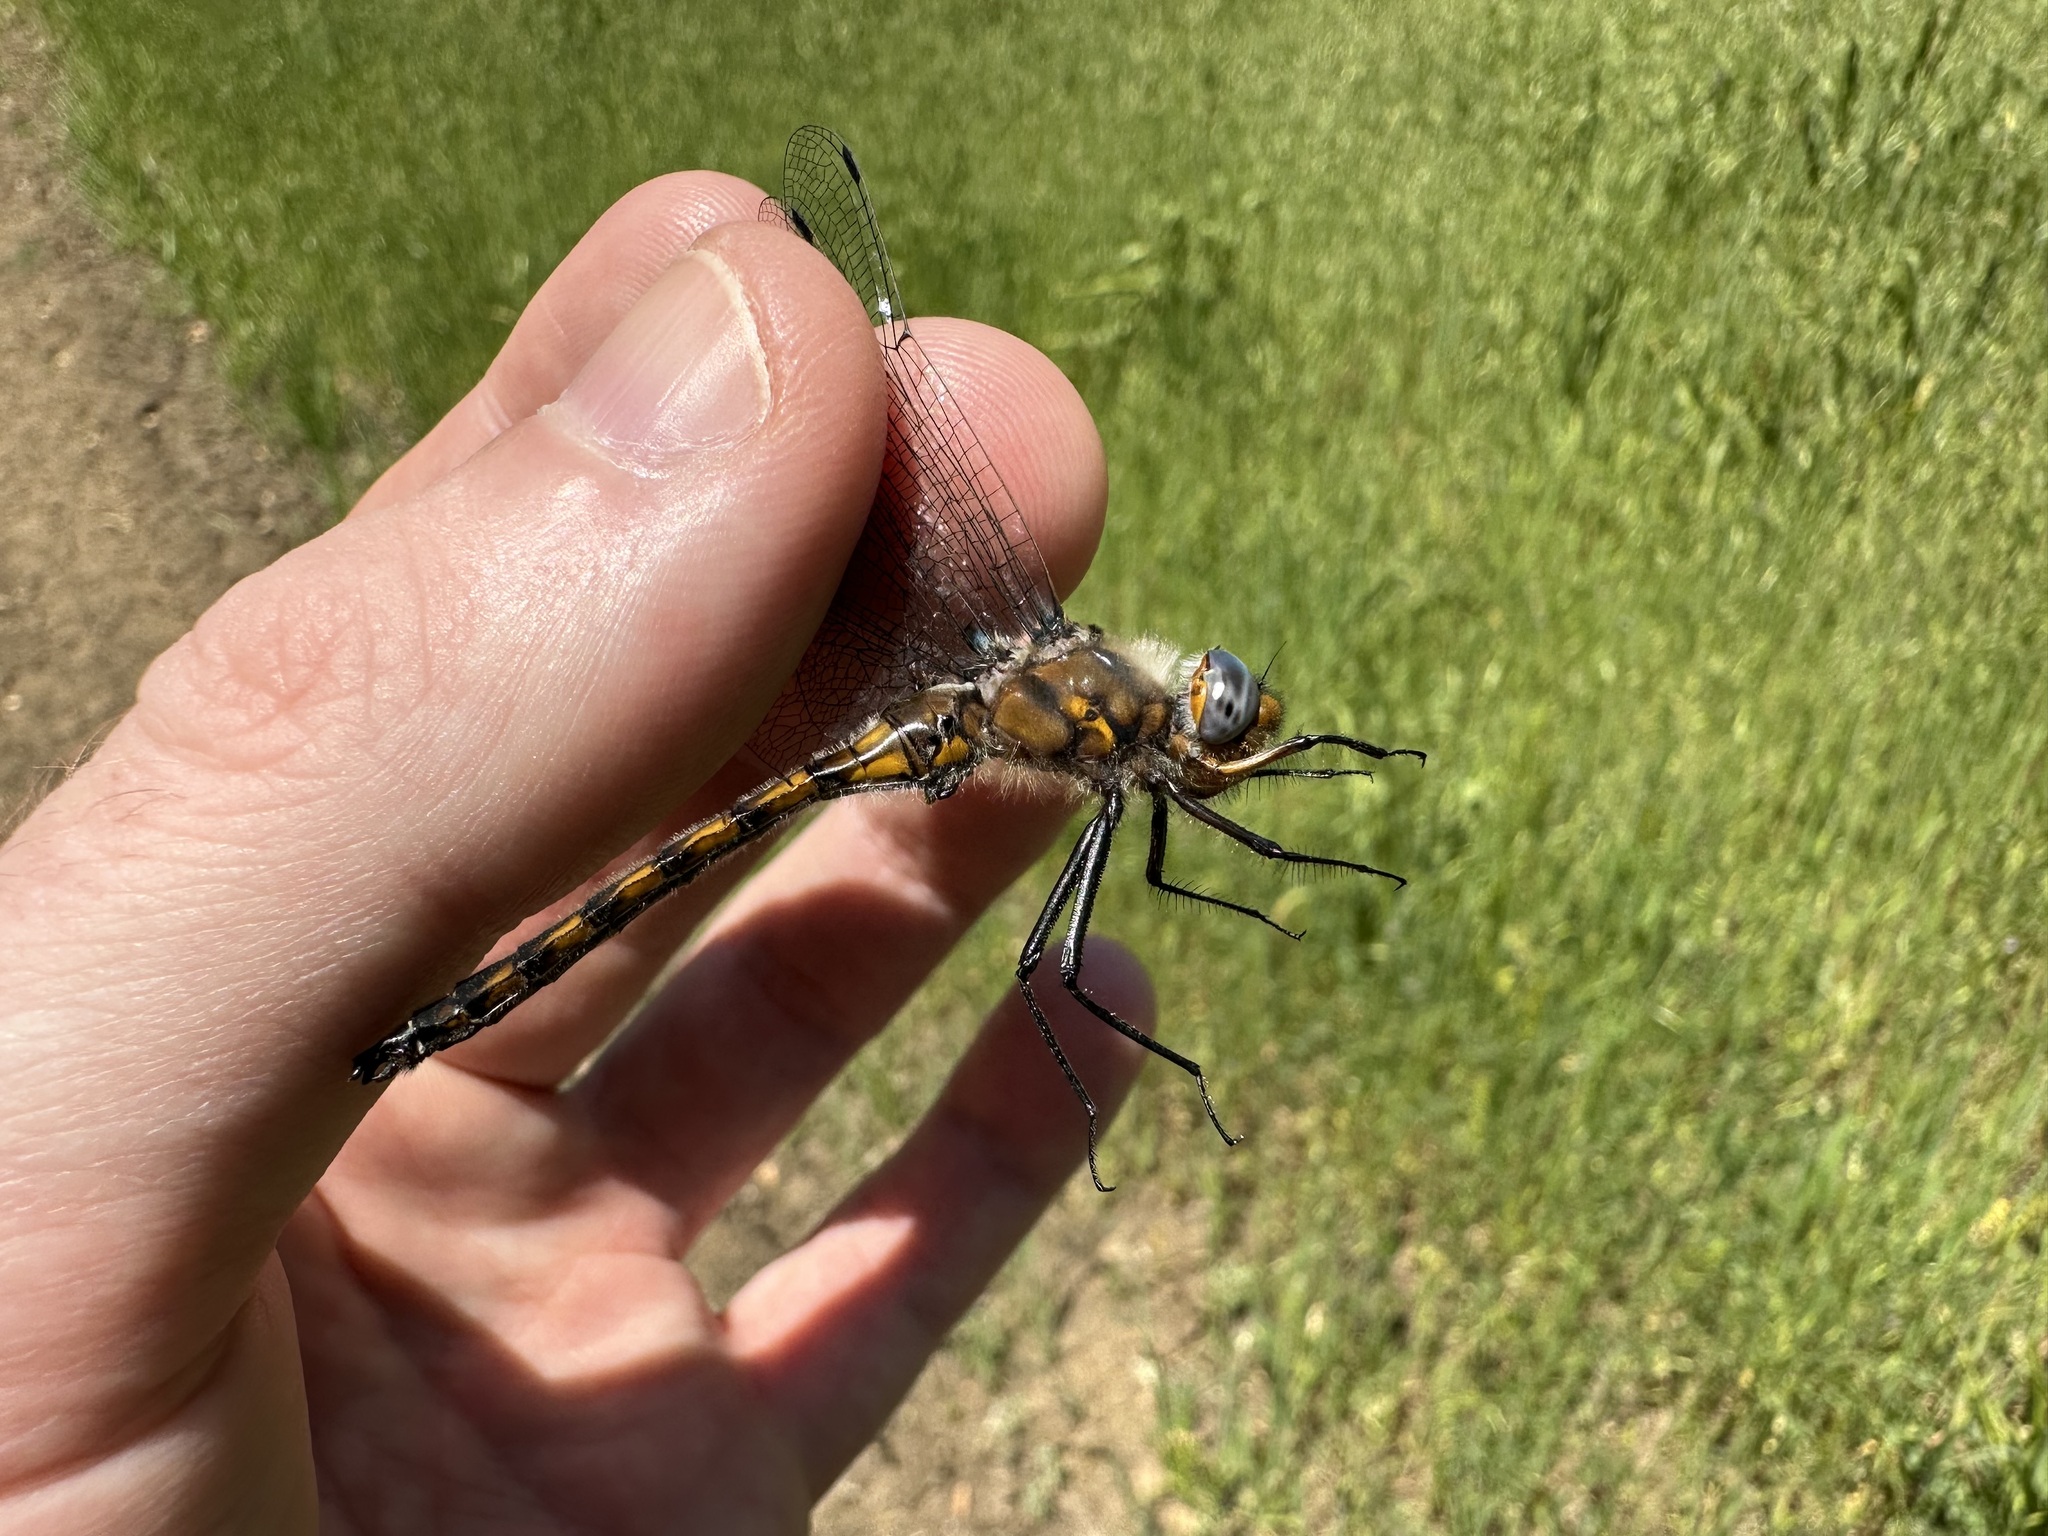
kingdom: Animalia
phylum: Arthropoda
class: Insecta
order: Odonata
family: Corduliidae
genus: Epitheca
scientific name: Epitheca canis
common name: Beaverpond baskettail
